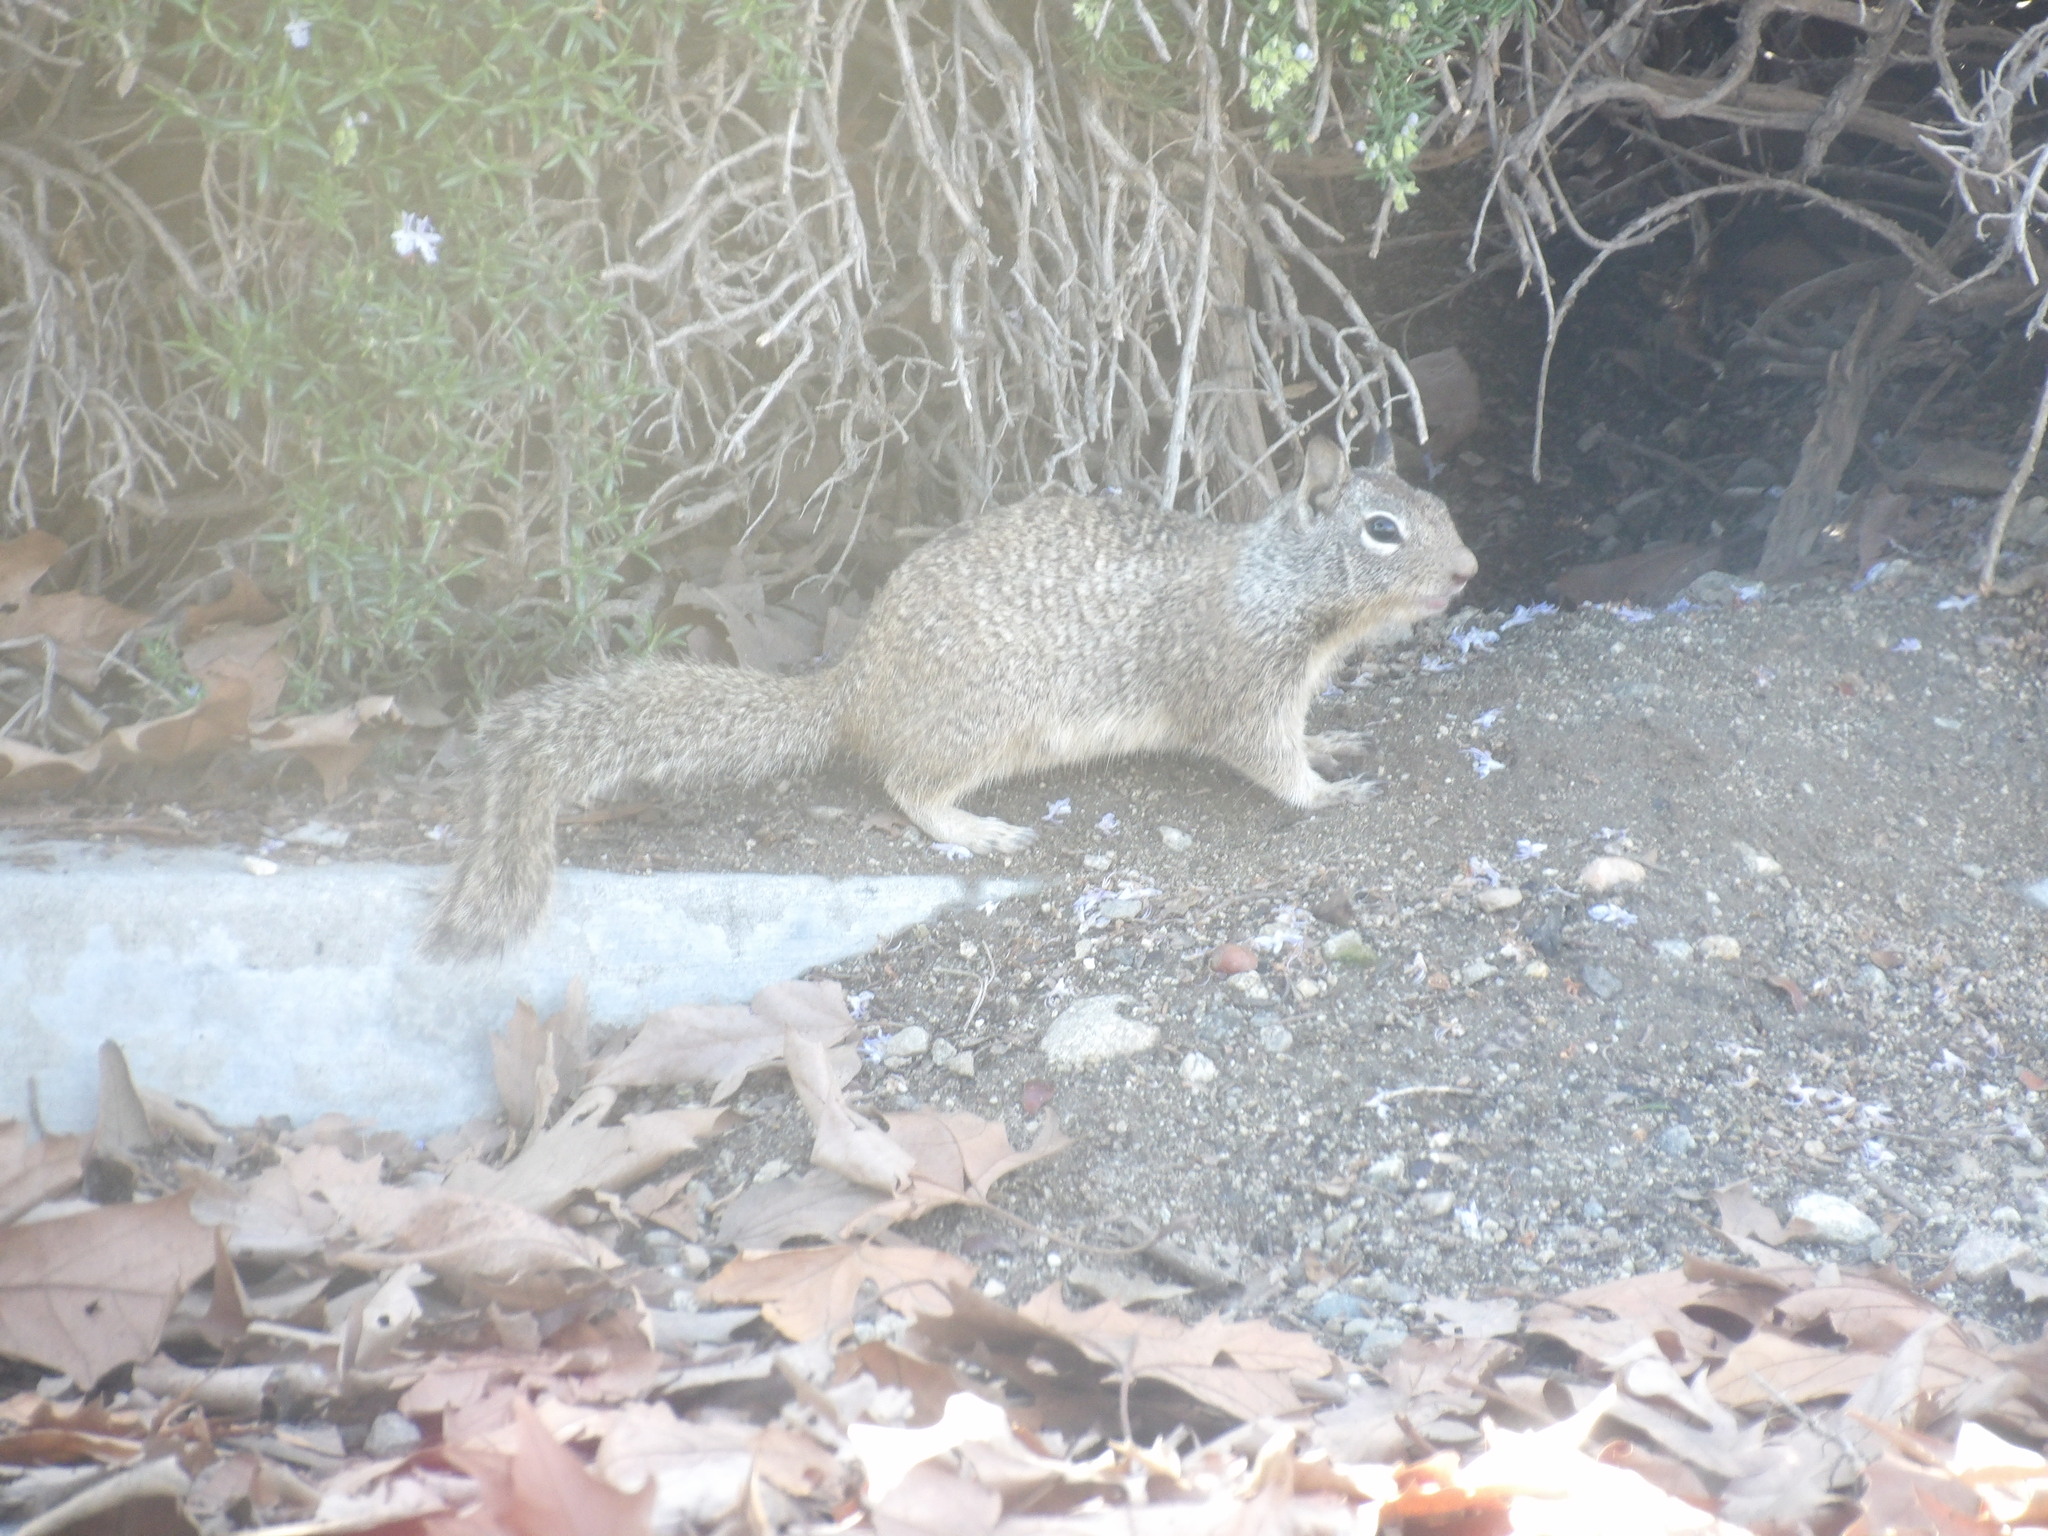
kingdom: Animalia
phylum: Chordata
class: Mammalia
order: Rodentia
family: Sciuridae
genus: Otospermophilus
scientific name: Otospermophilus beecheyi
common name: California ground squirrel
